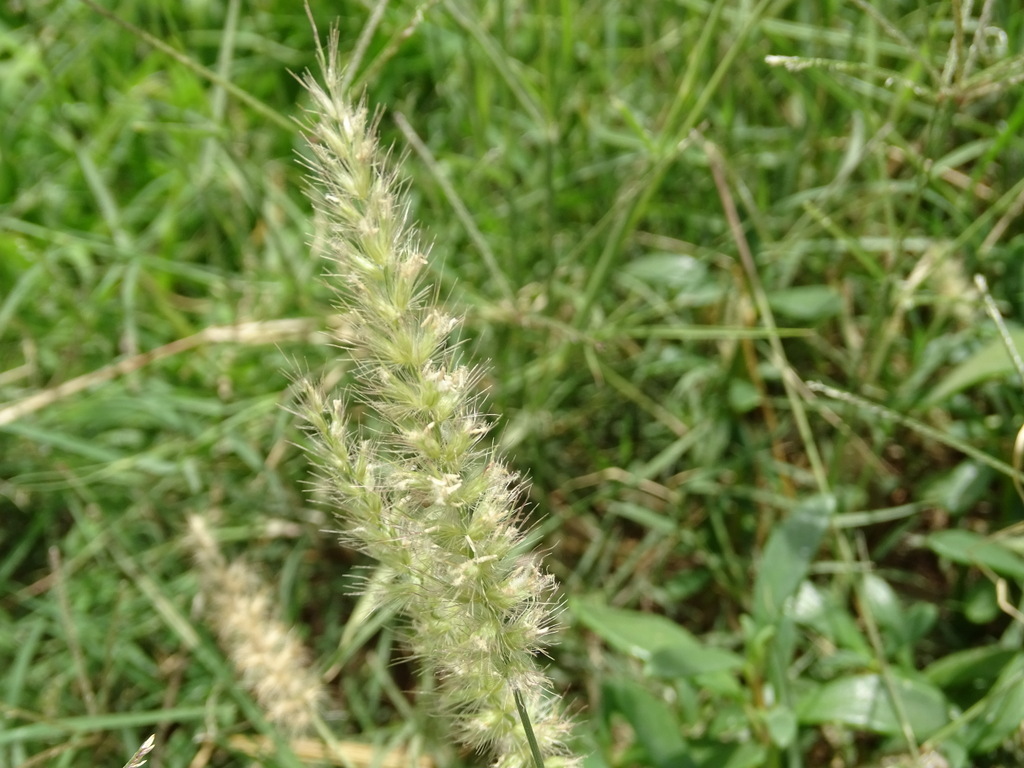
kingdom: Plantae
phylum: Tracheophyta
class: Liliopsida
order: Poales
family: Poaceae
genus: Cenchrus
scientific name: Cenchrus pennisetiformis
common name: Cloncurry
